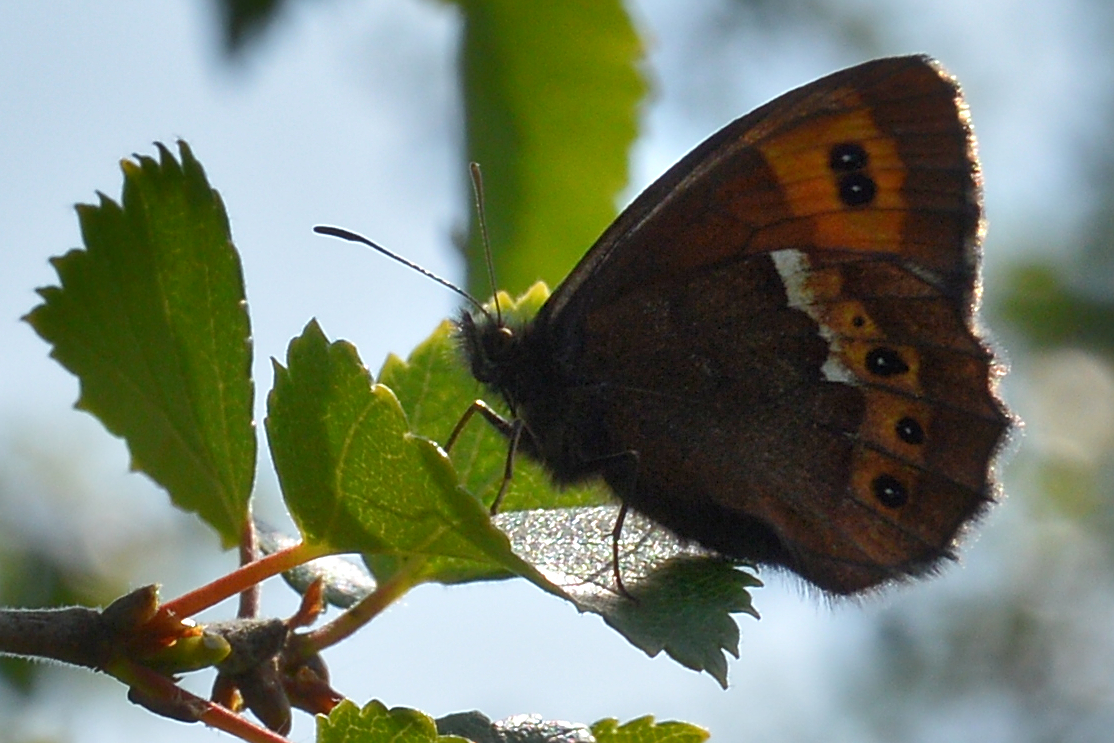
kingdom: Animalia
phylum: Arthropoda
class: Insecta
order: Lepidoptera
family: Nymphalidae
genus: Erebia
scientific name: Erebia ligea
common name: Arran brown
